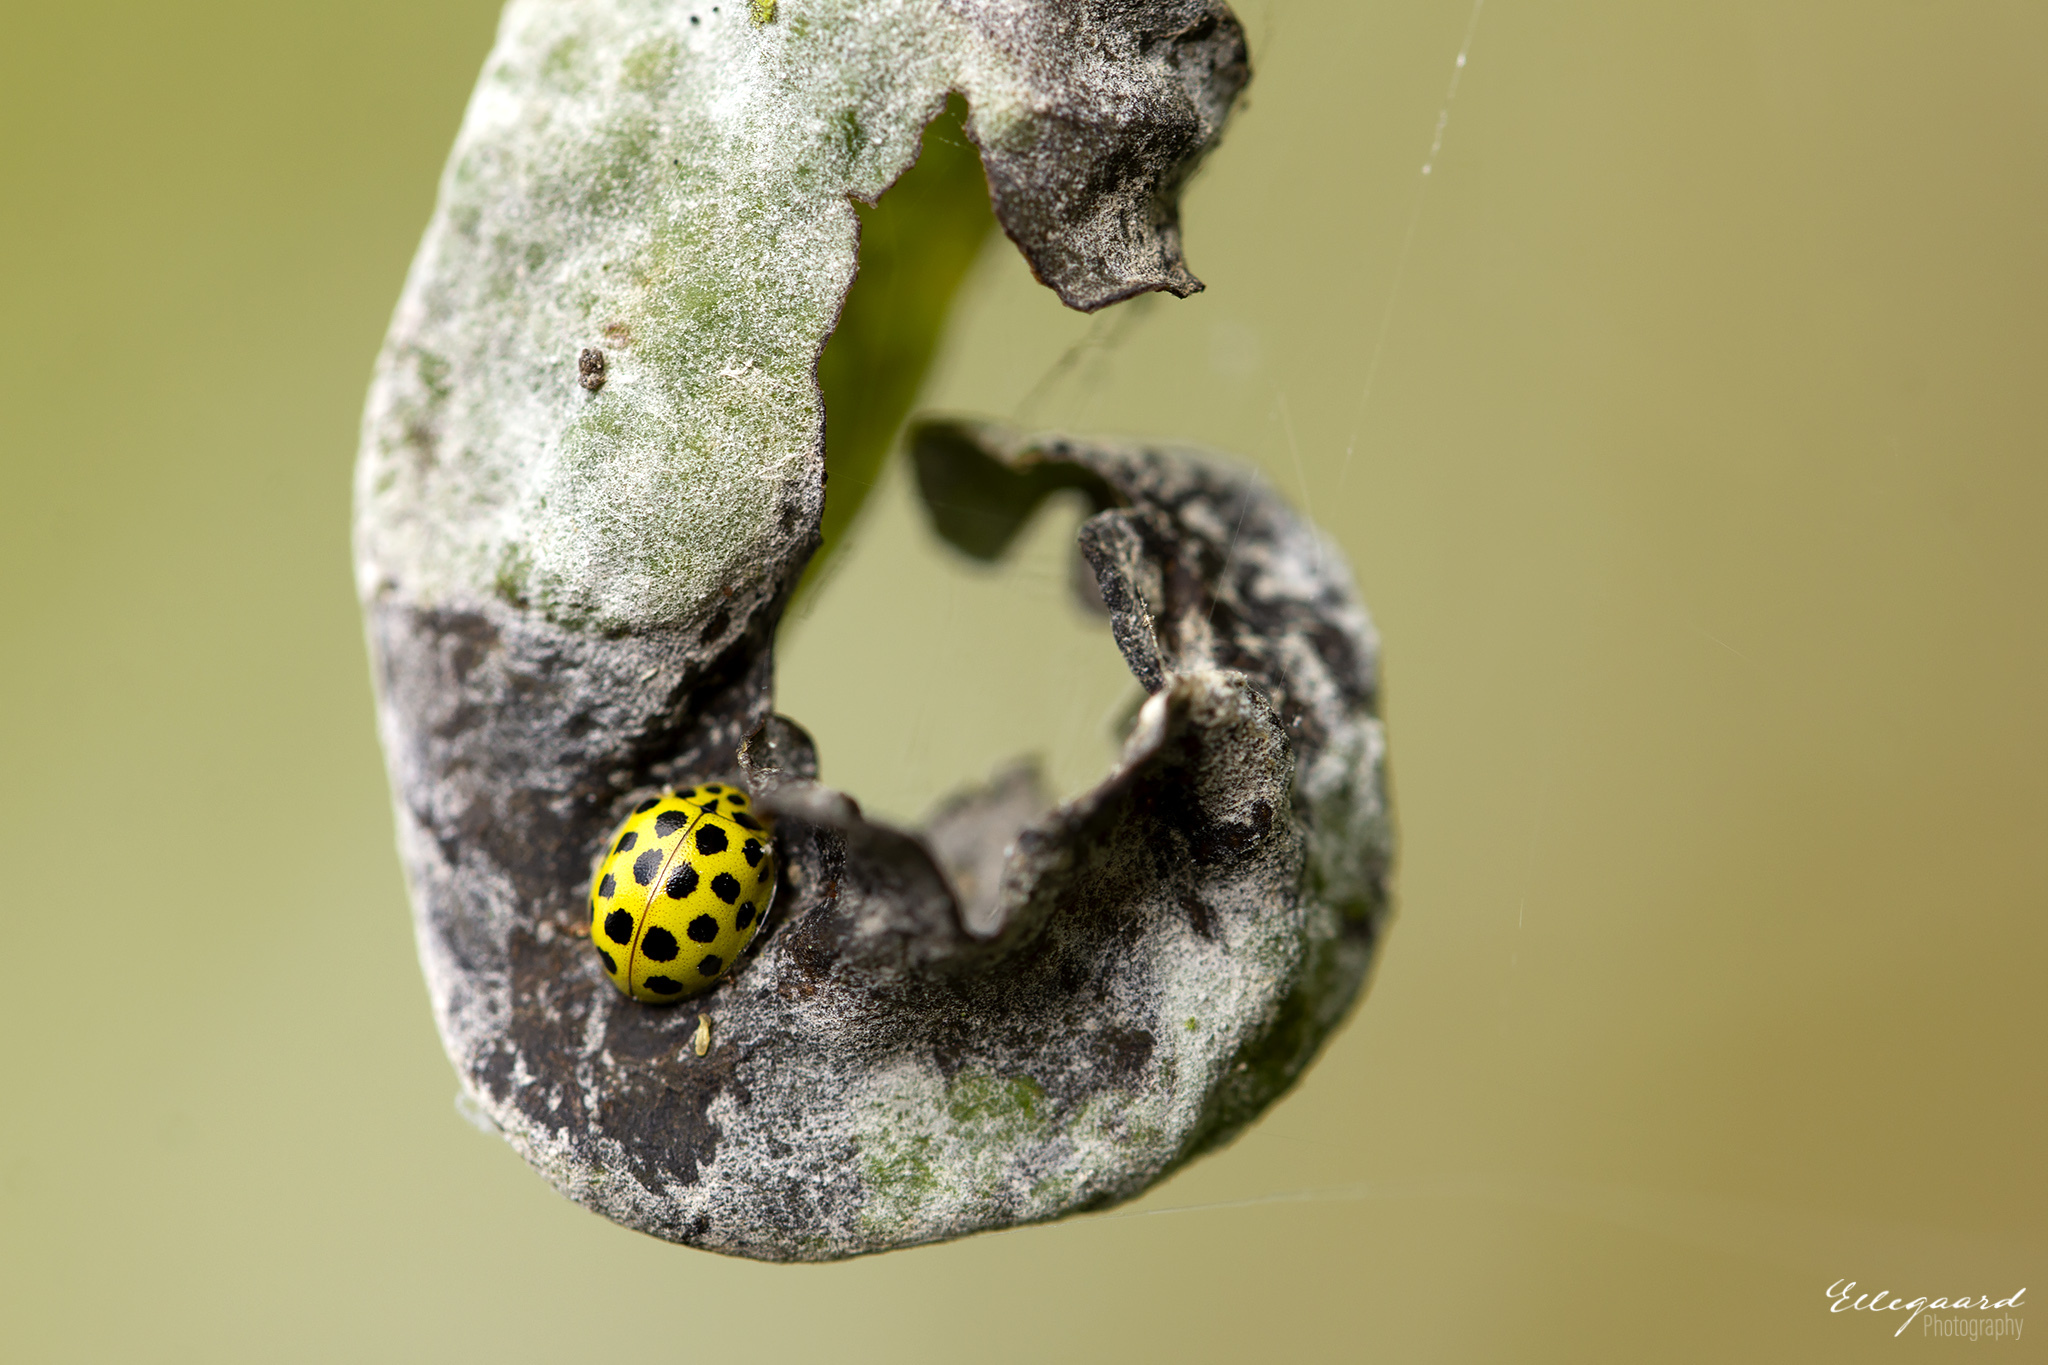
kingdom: Animalia
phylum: Arthropoda
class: Insecta
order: Coleoptera
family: Coccinellidae
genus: Psyllobora
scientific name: Psyllobora vigintiduopunctata
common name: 22-spot ladybird
